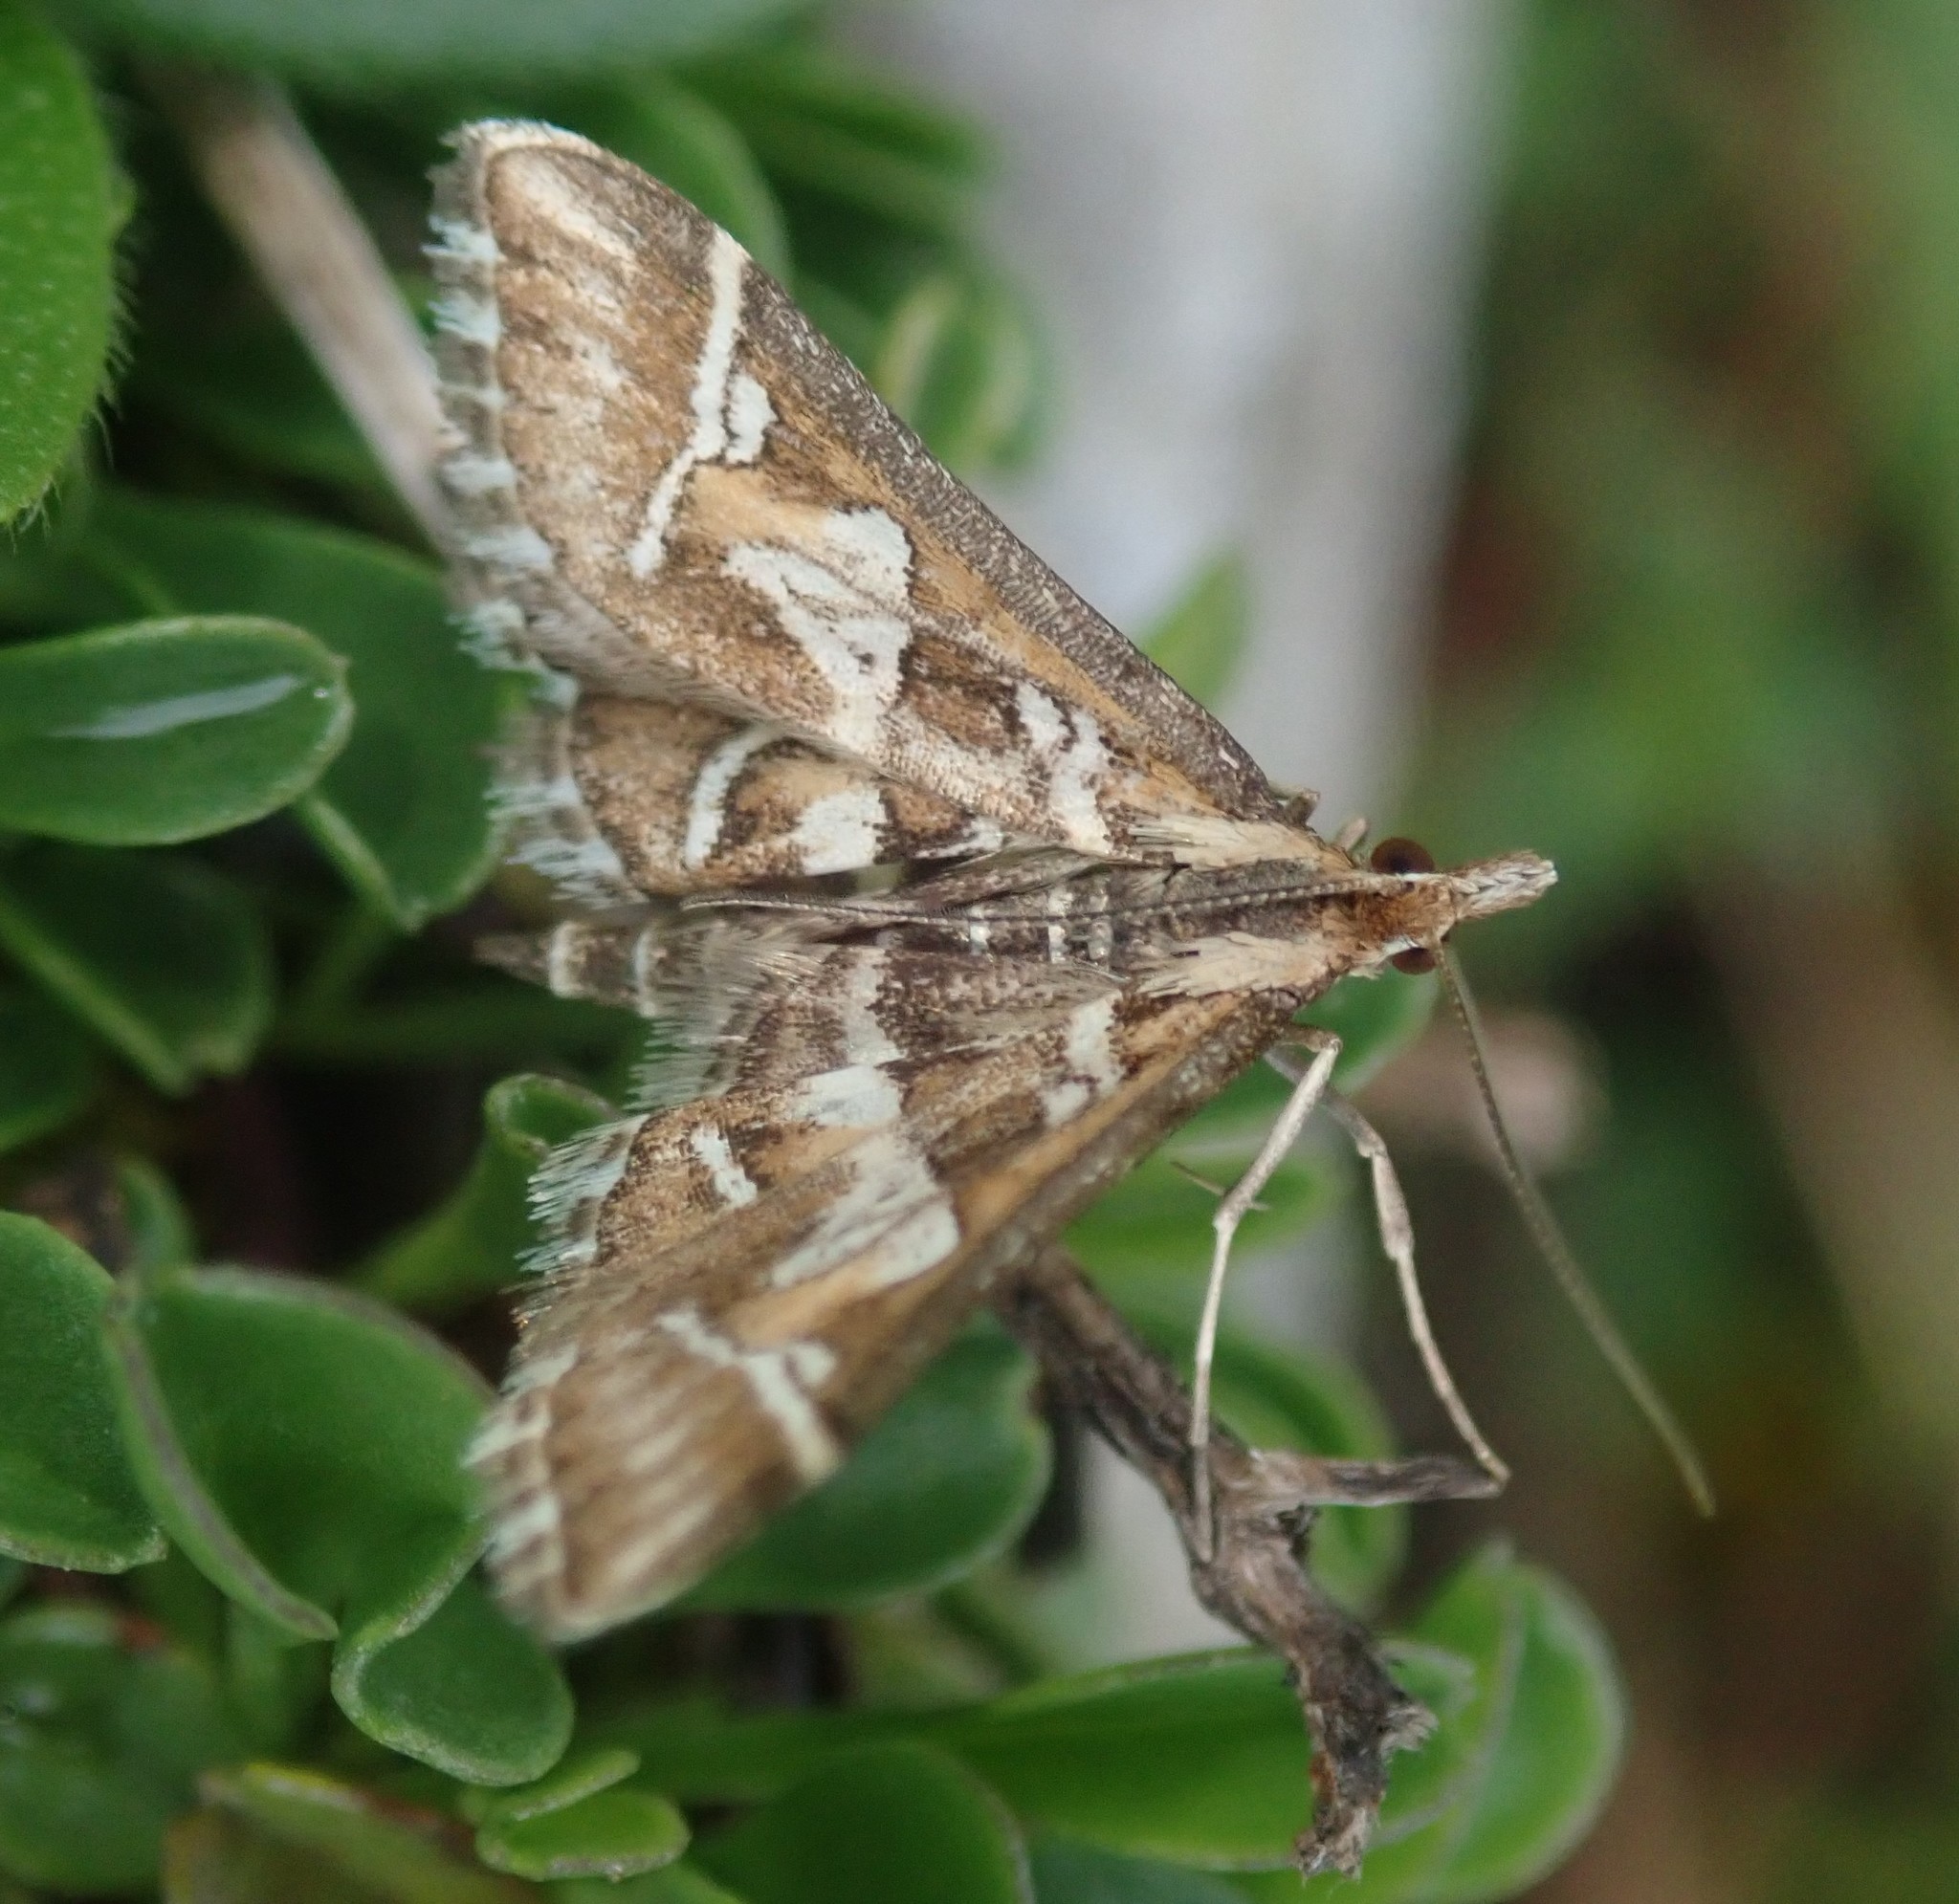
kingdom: Animalia
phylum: Arthropoda
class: Insecta
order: Lepidoptera
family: Crambidae
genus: Diasemia
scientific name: Diasemia reticularis
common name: Lettered china-mark
